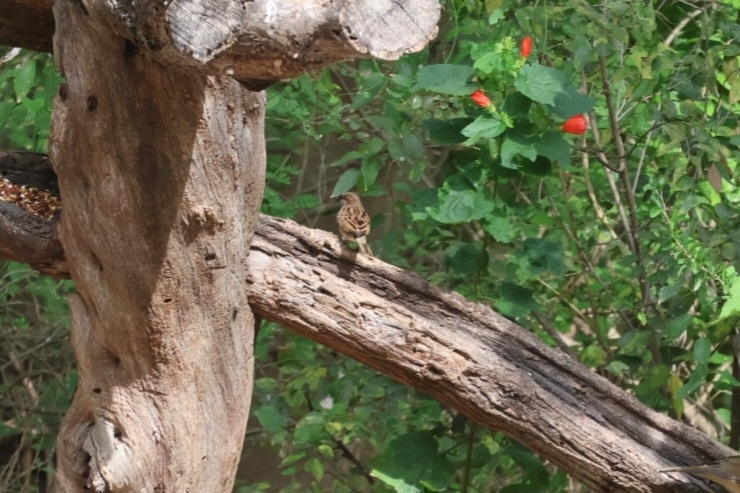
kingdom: Animalia
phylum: Chordata
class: Aves
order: Passeriformes
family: Passeridae
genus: Passer
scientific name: Passer domesticus
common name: House sparrow
